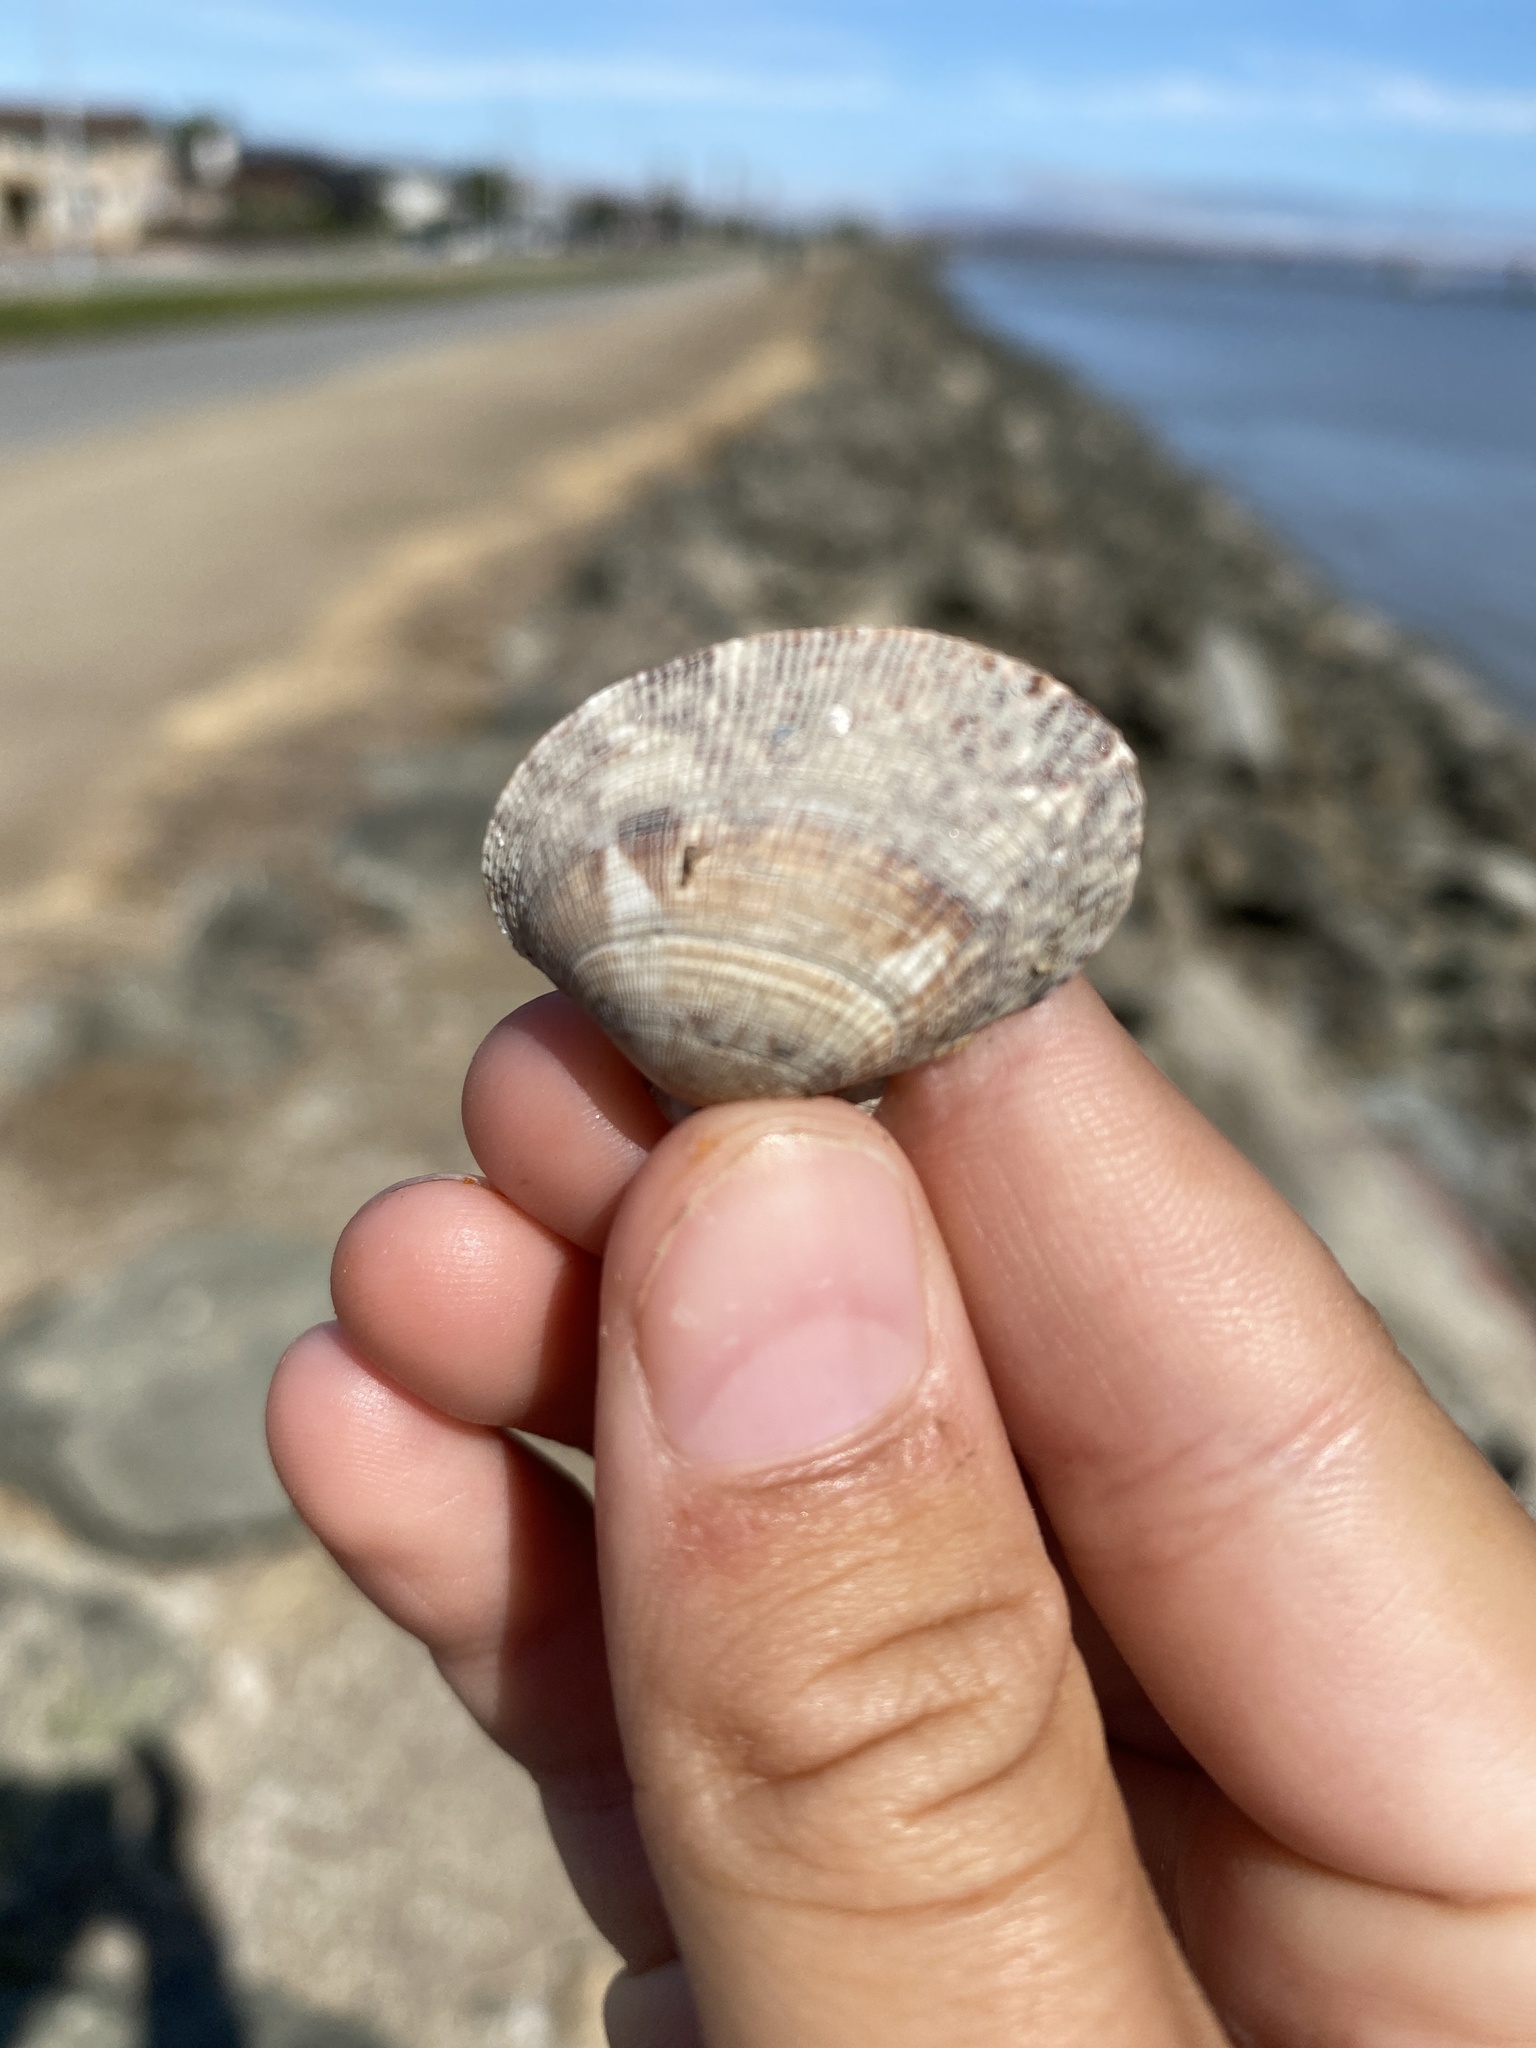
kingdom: Animalia
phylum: Mollusca
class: Bivalvia
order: Venerida
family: Veneridae
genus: Ruditapes
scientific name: Ruditapes philippinarum
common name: Manila clam
